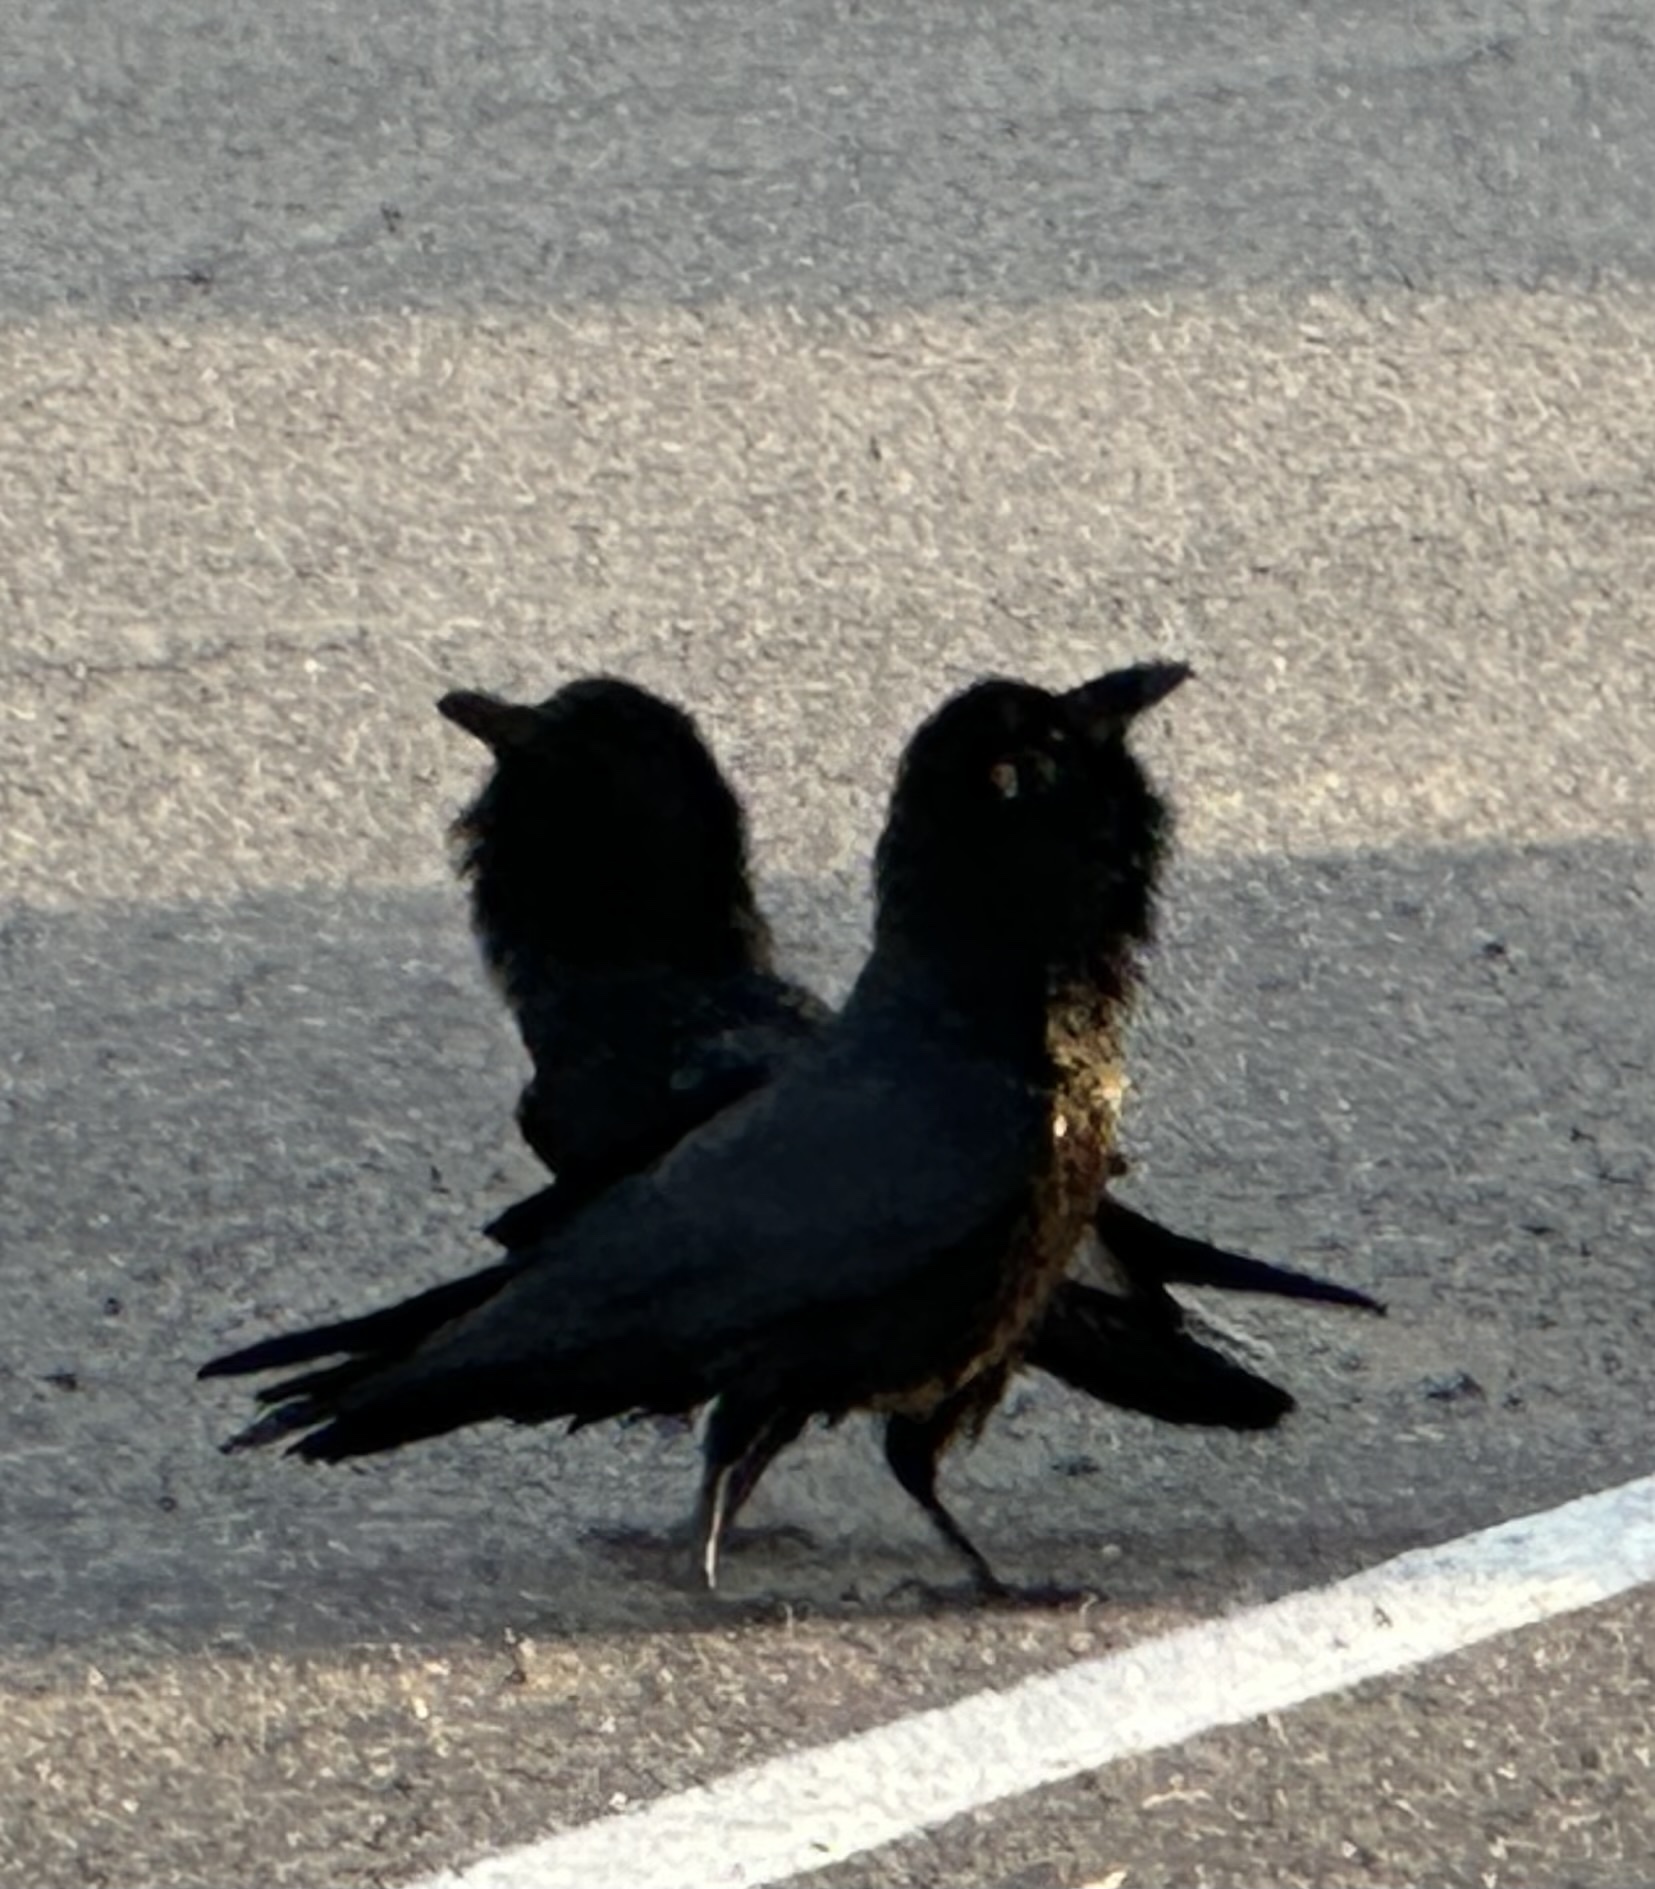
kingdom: Animalia
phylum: Chordata
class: Aves
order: Passeriformes
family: Corvidae
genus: Corvus
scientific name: Corvus corax
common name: Common raven
